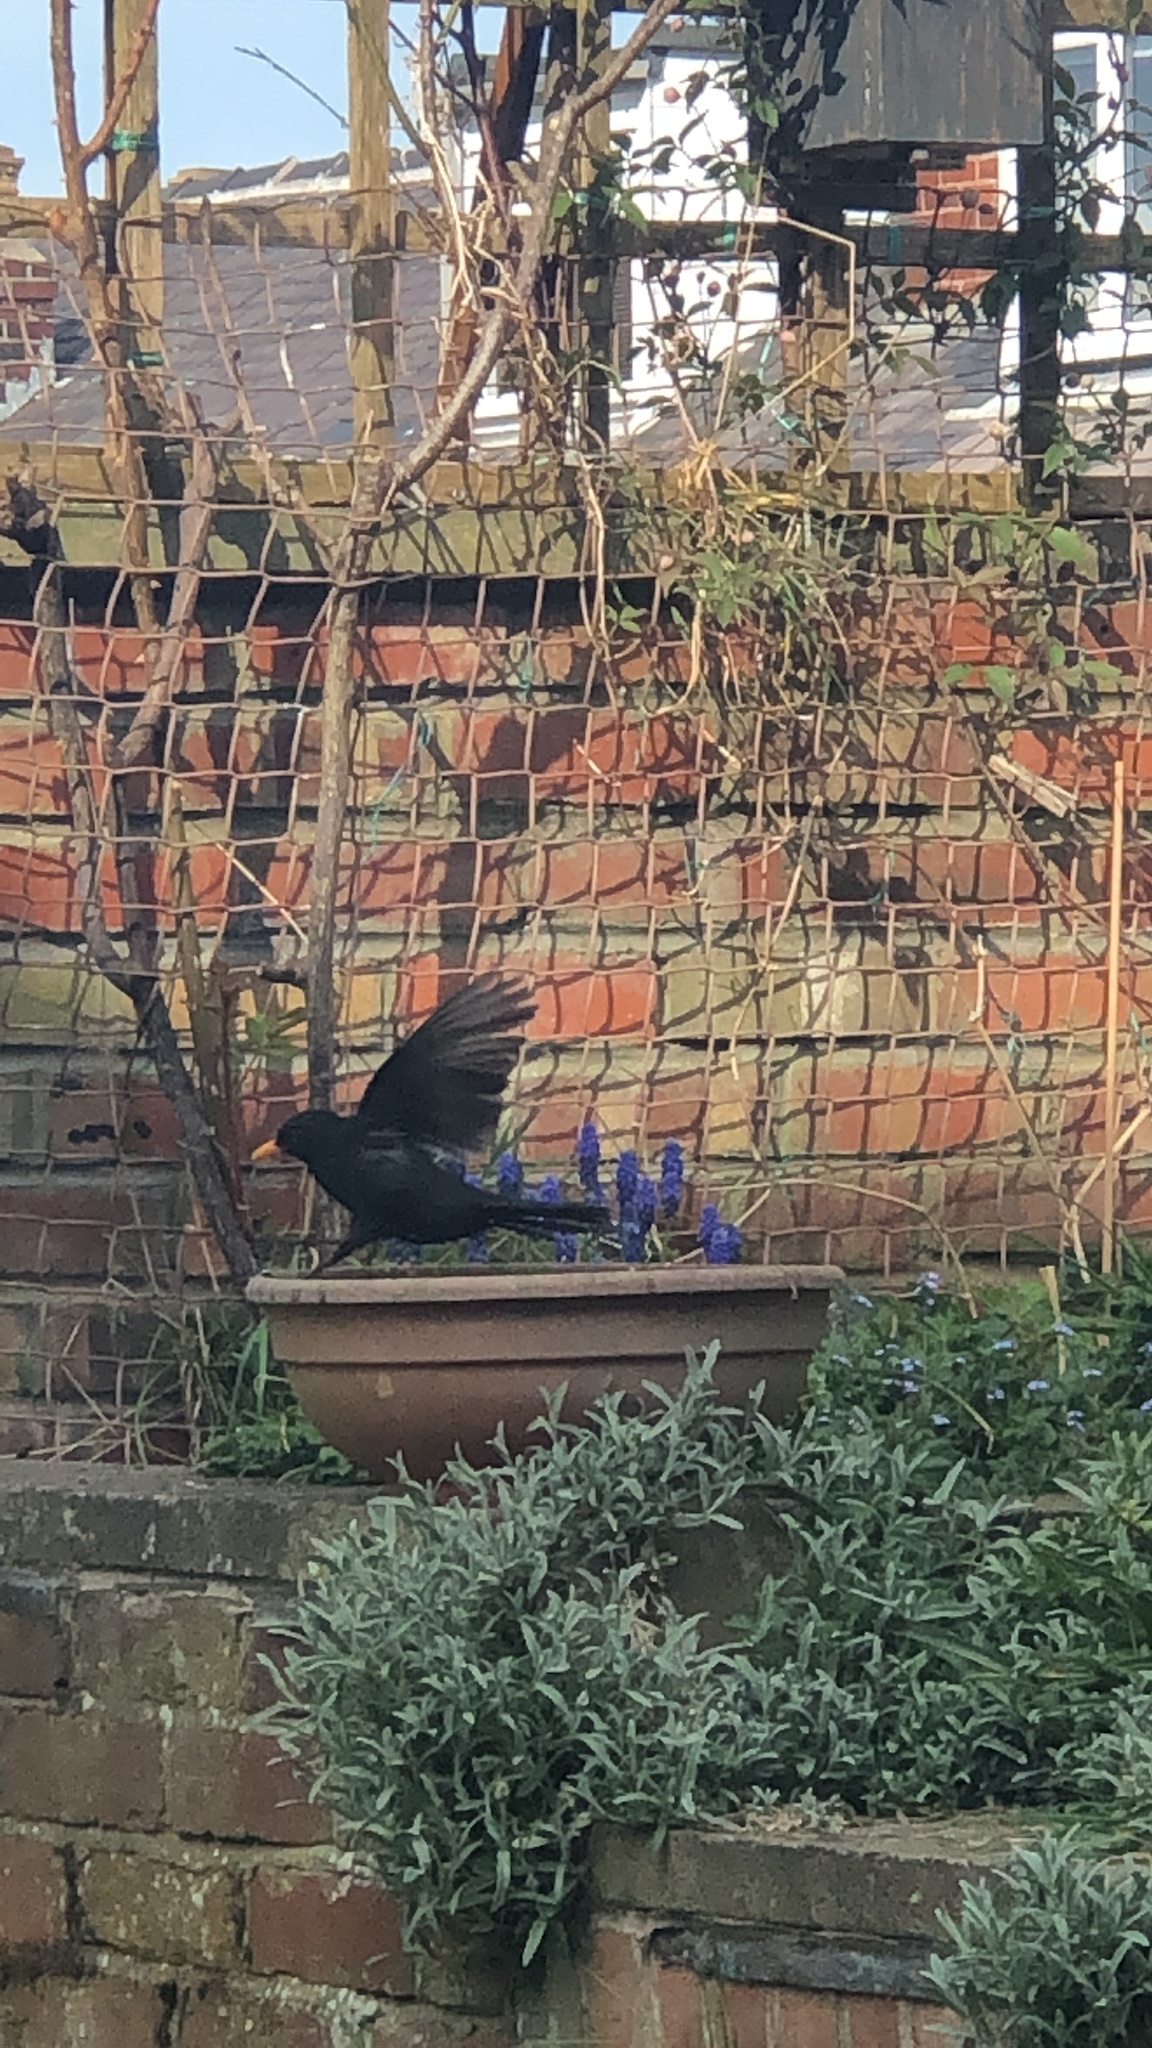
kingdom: Animalia
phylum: Chordata
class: Aves
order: Passeriformes
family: Turdidae
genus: Turdus
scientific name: Turdus merula
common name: Common blackbird
